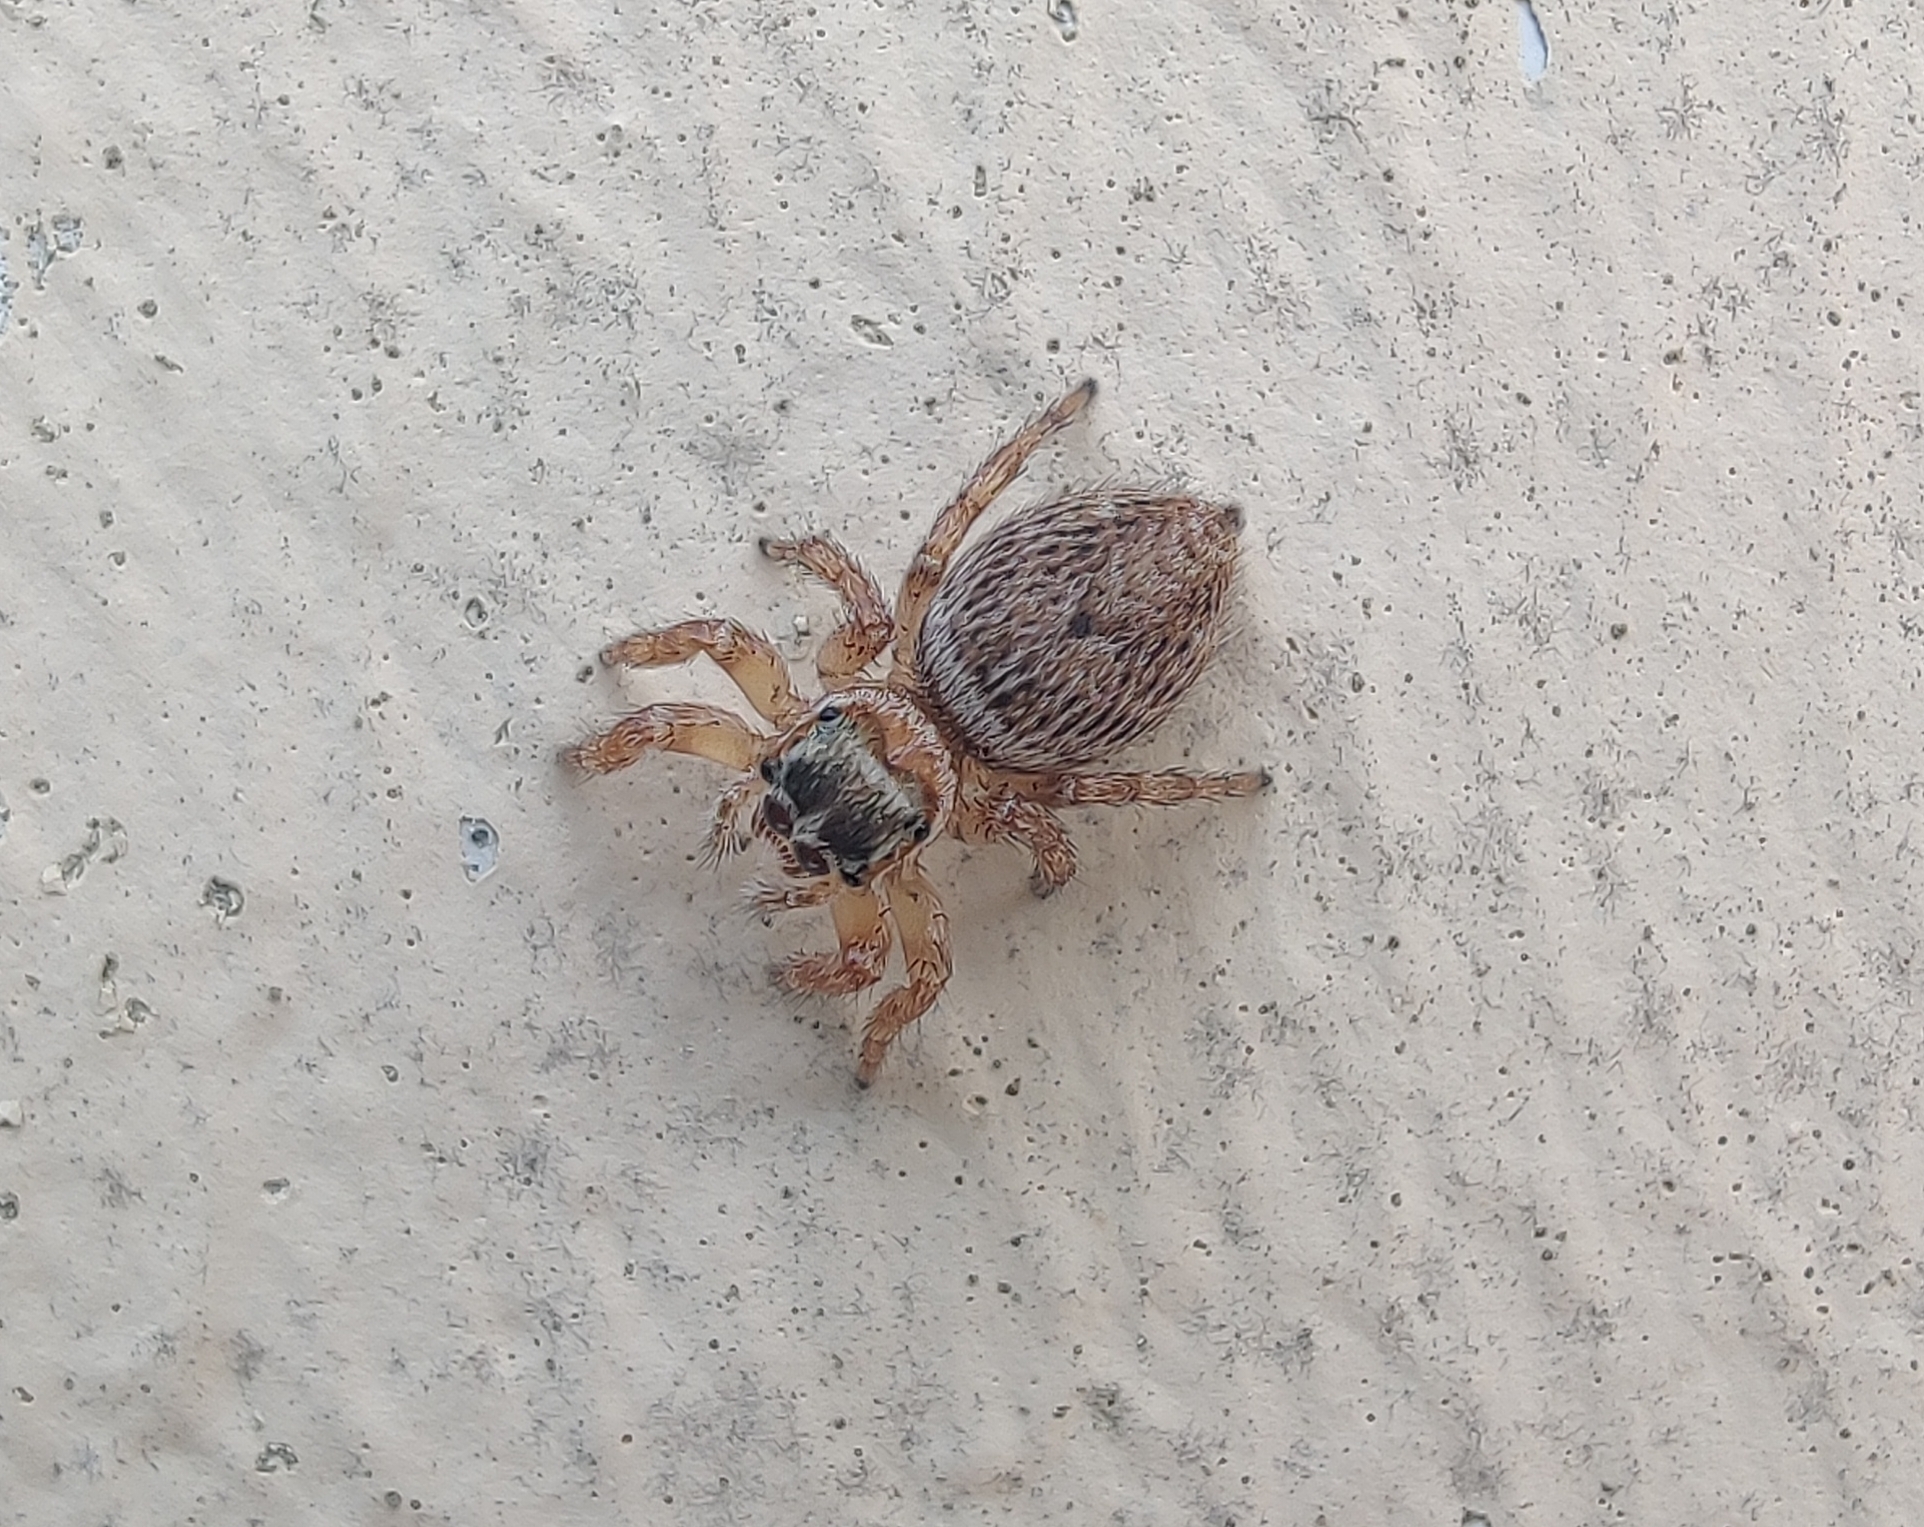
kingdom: Animalia
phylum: Arthropoda
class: Arachnida
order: Araneae
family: Salticidae
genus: Evarcha
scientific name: Evarcha jucunda
